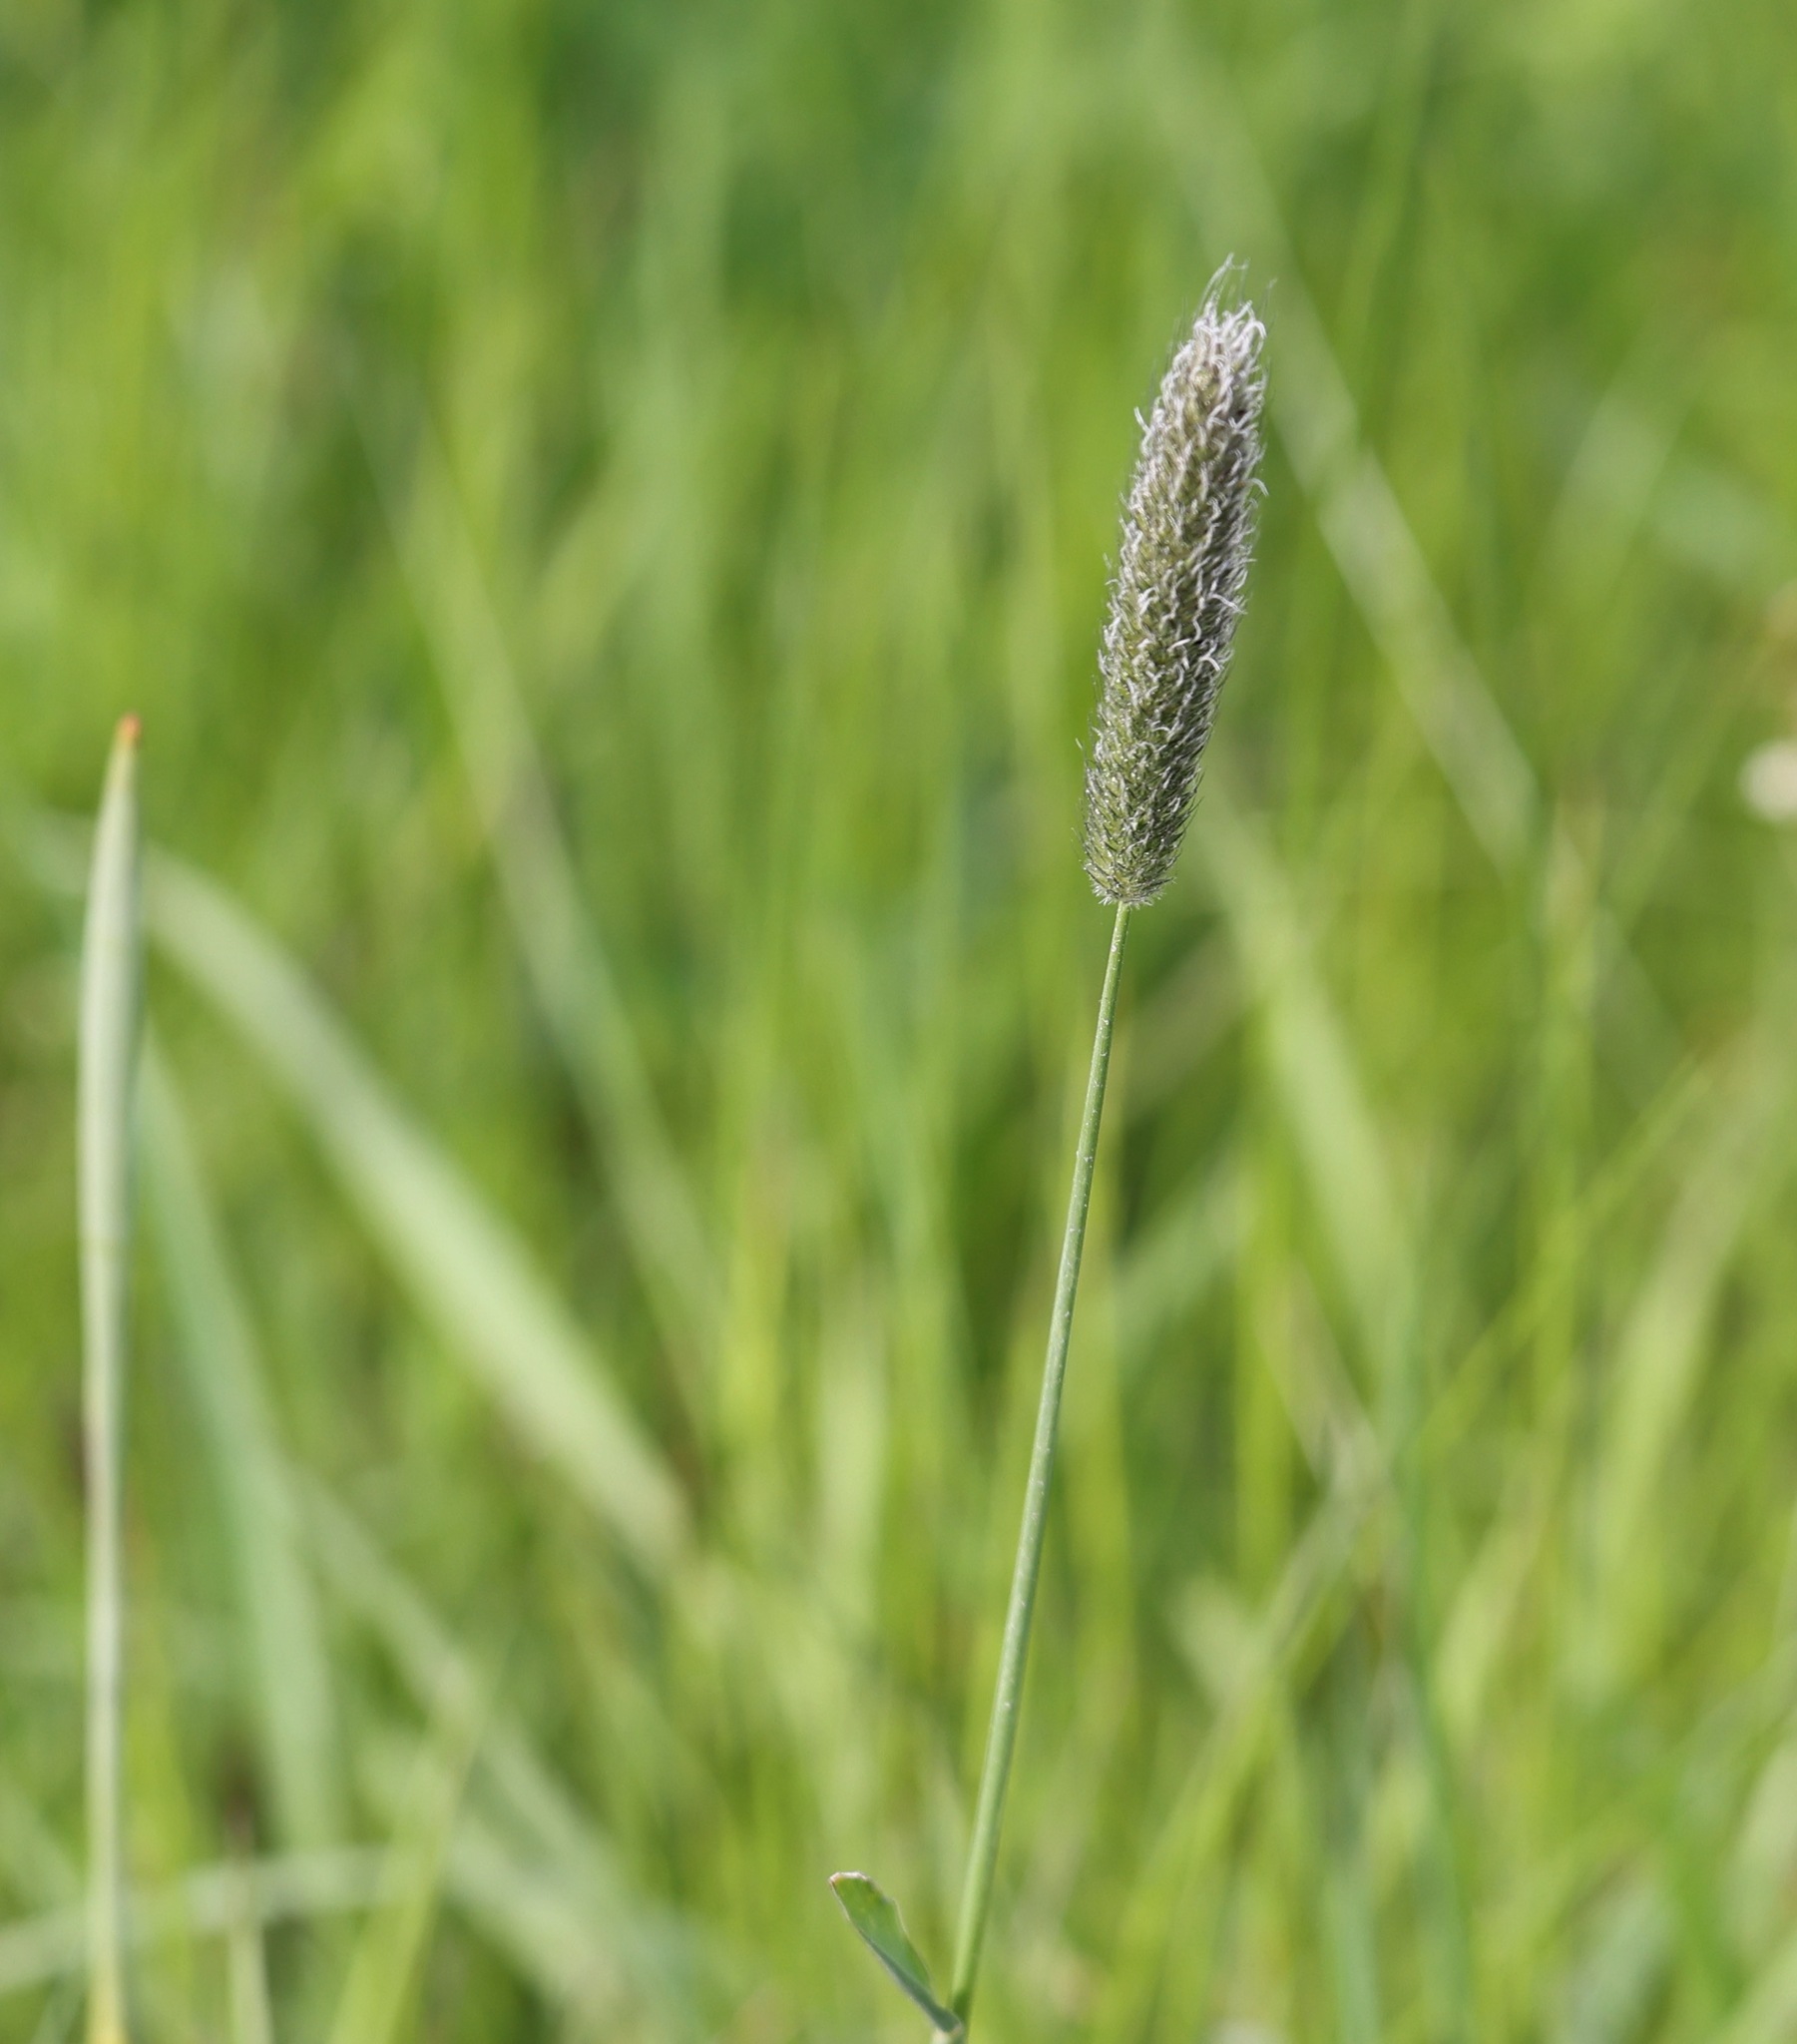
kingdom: Plantae
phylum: Tracheophyta
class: Liliopsida
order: Poales
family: Poaceae
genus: Alopecurus
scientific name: Alopecurus pratensis
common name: Meadow foxtail
